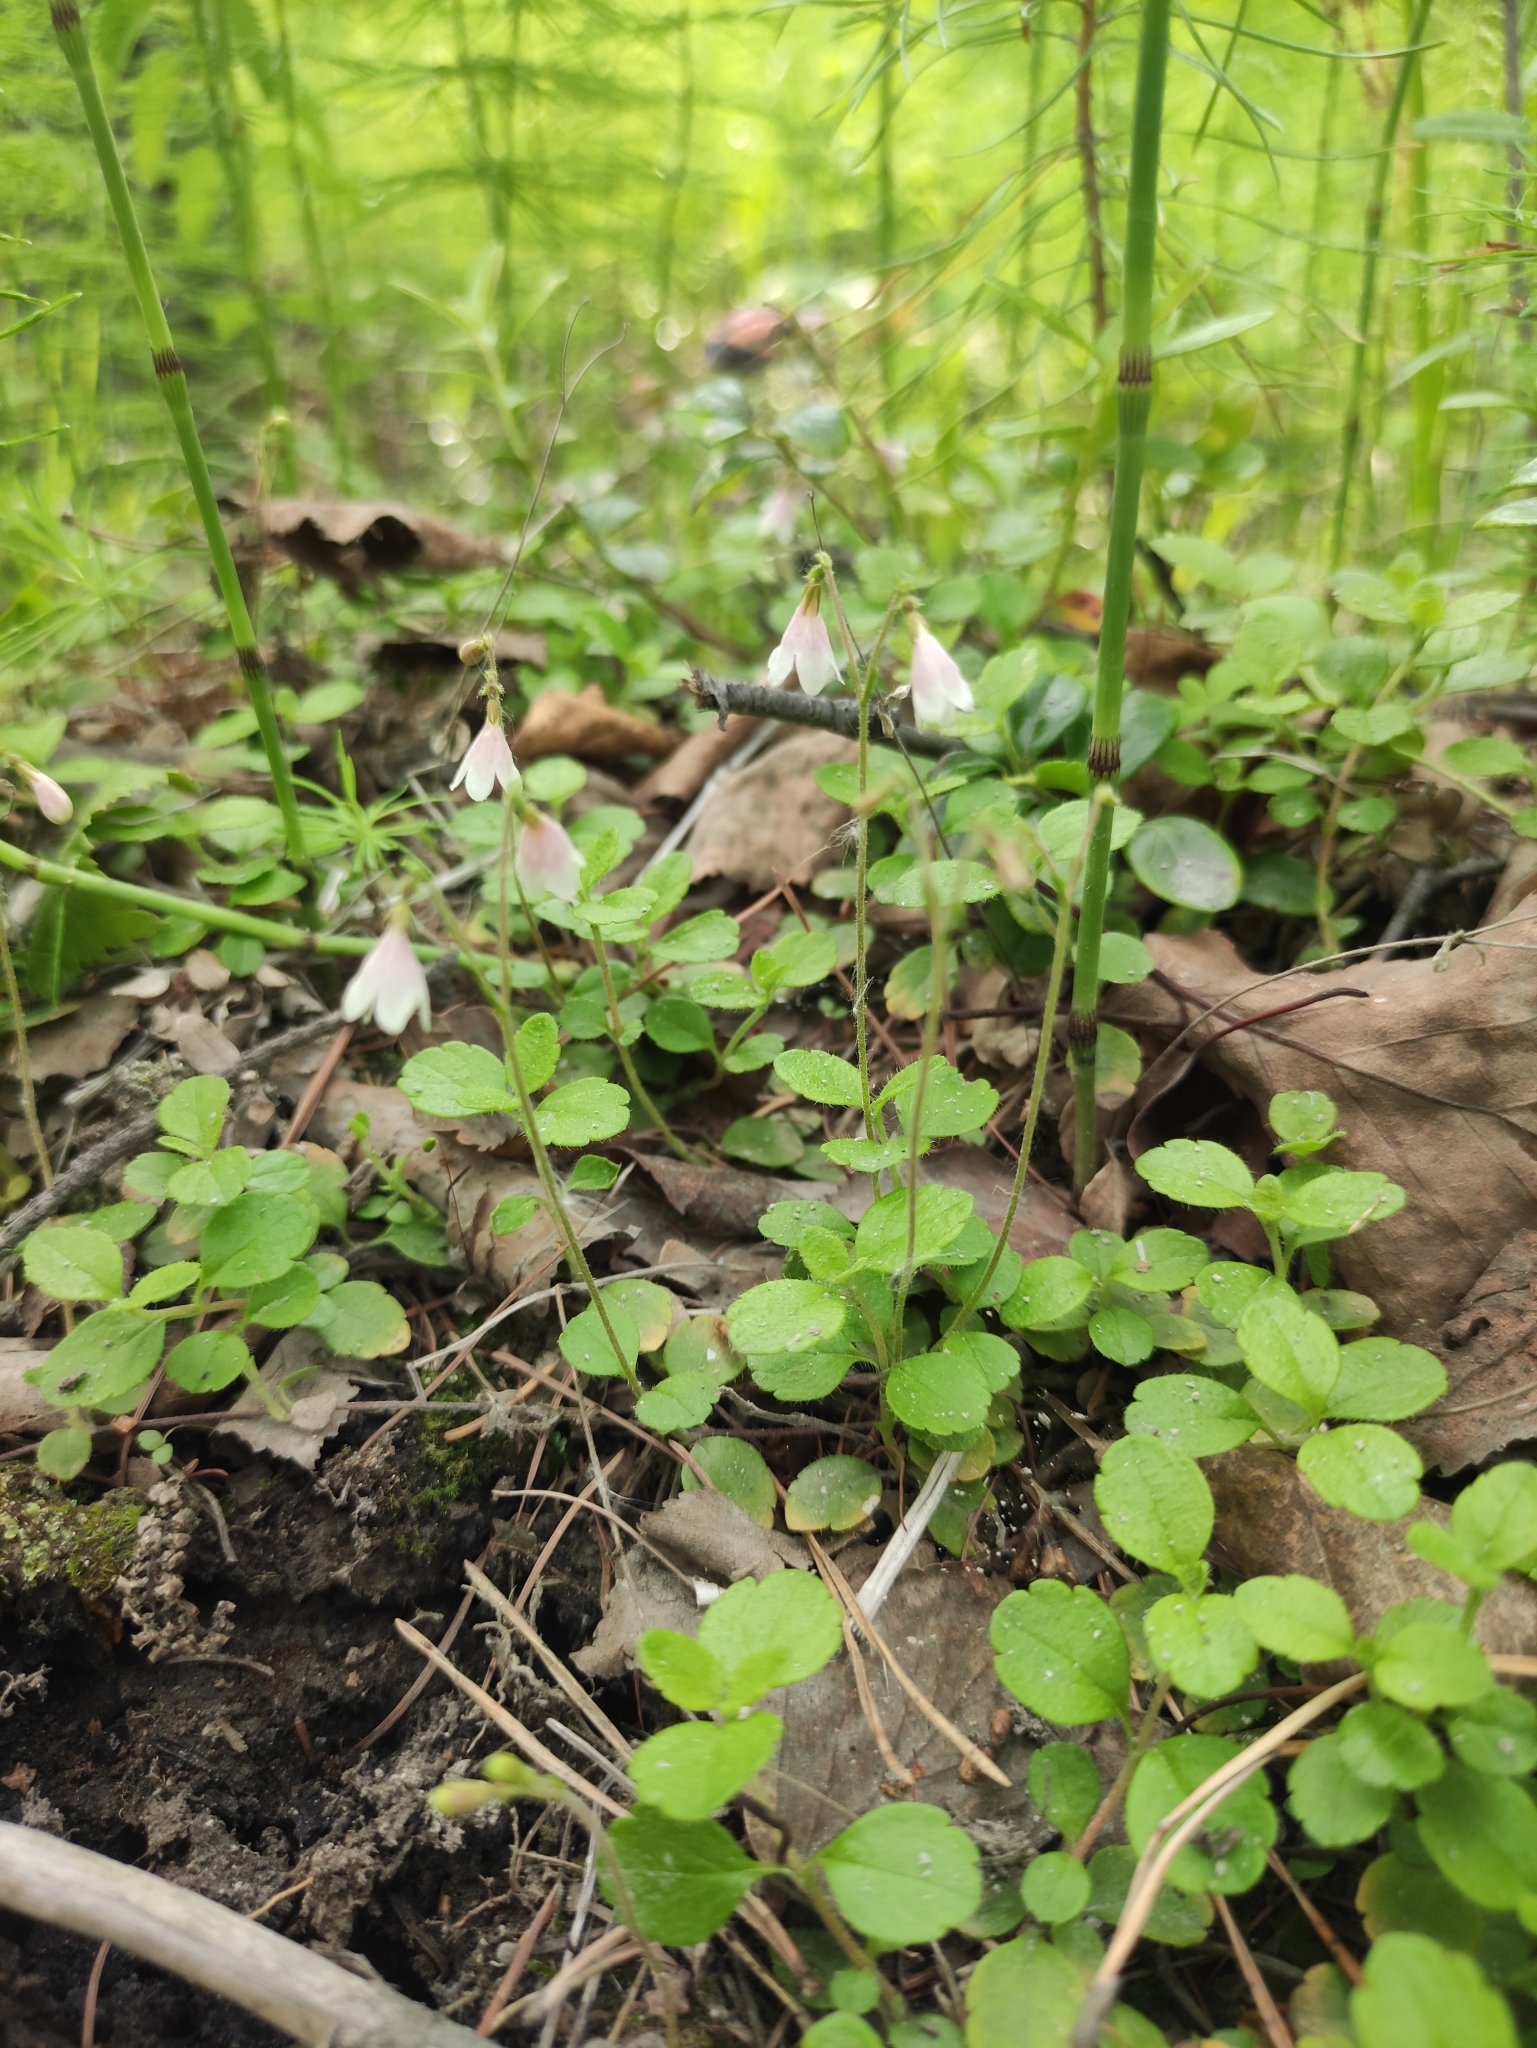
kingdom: Plantae
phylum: Tracheophyta
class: Magnoliopsida
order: Dipsacales
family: Caprifoliaceae
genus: Linnaea
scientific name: Linnaea borealis
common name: Twinflower
